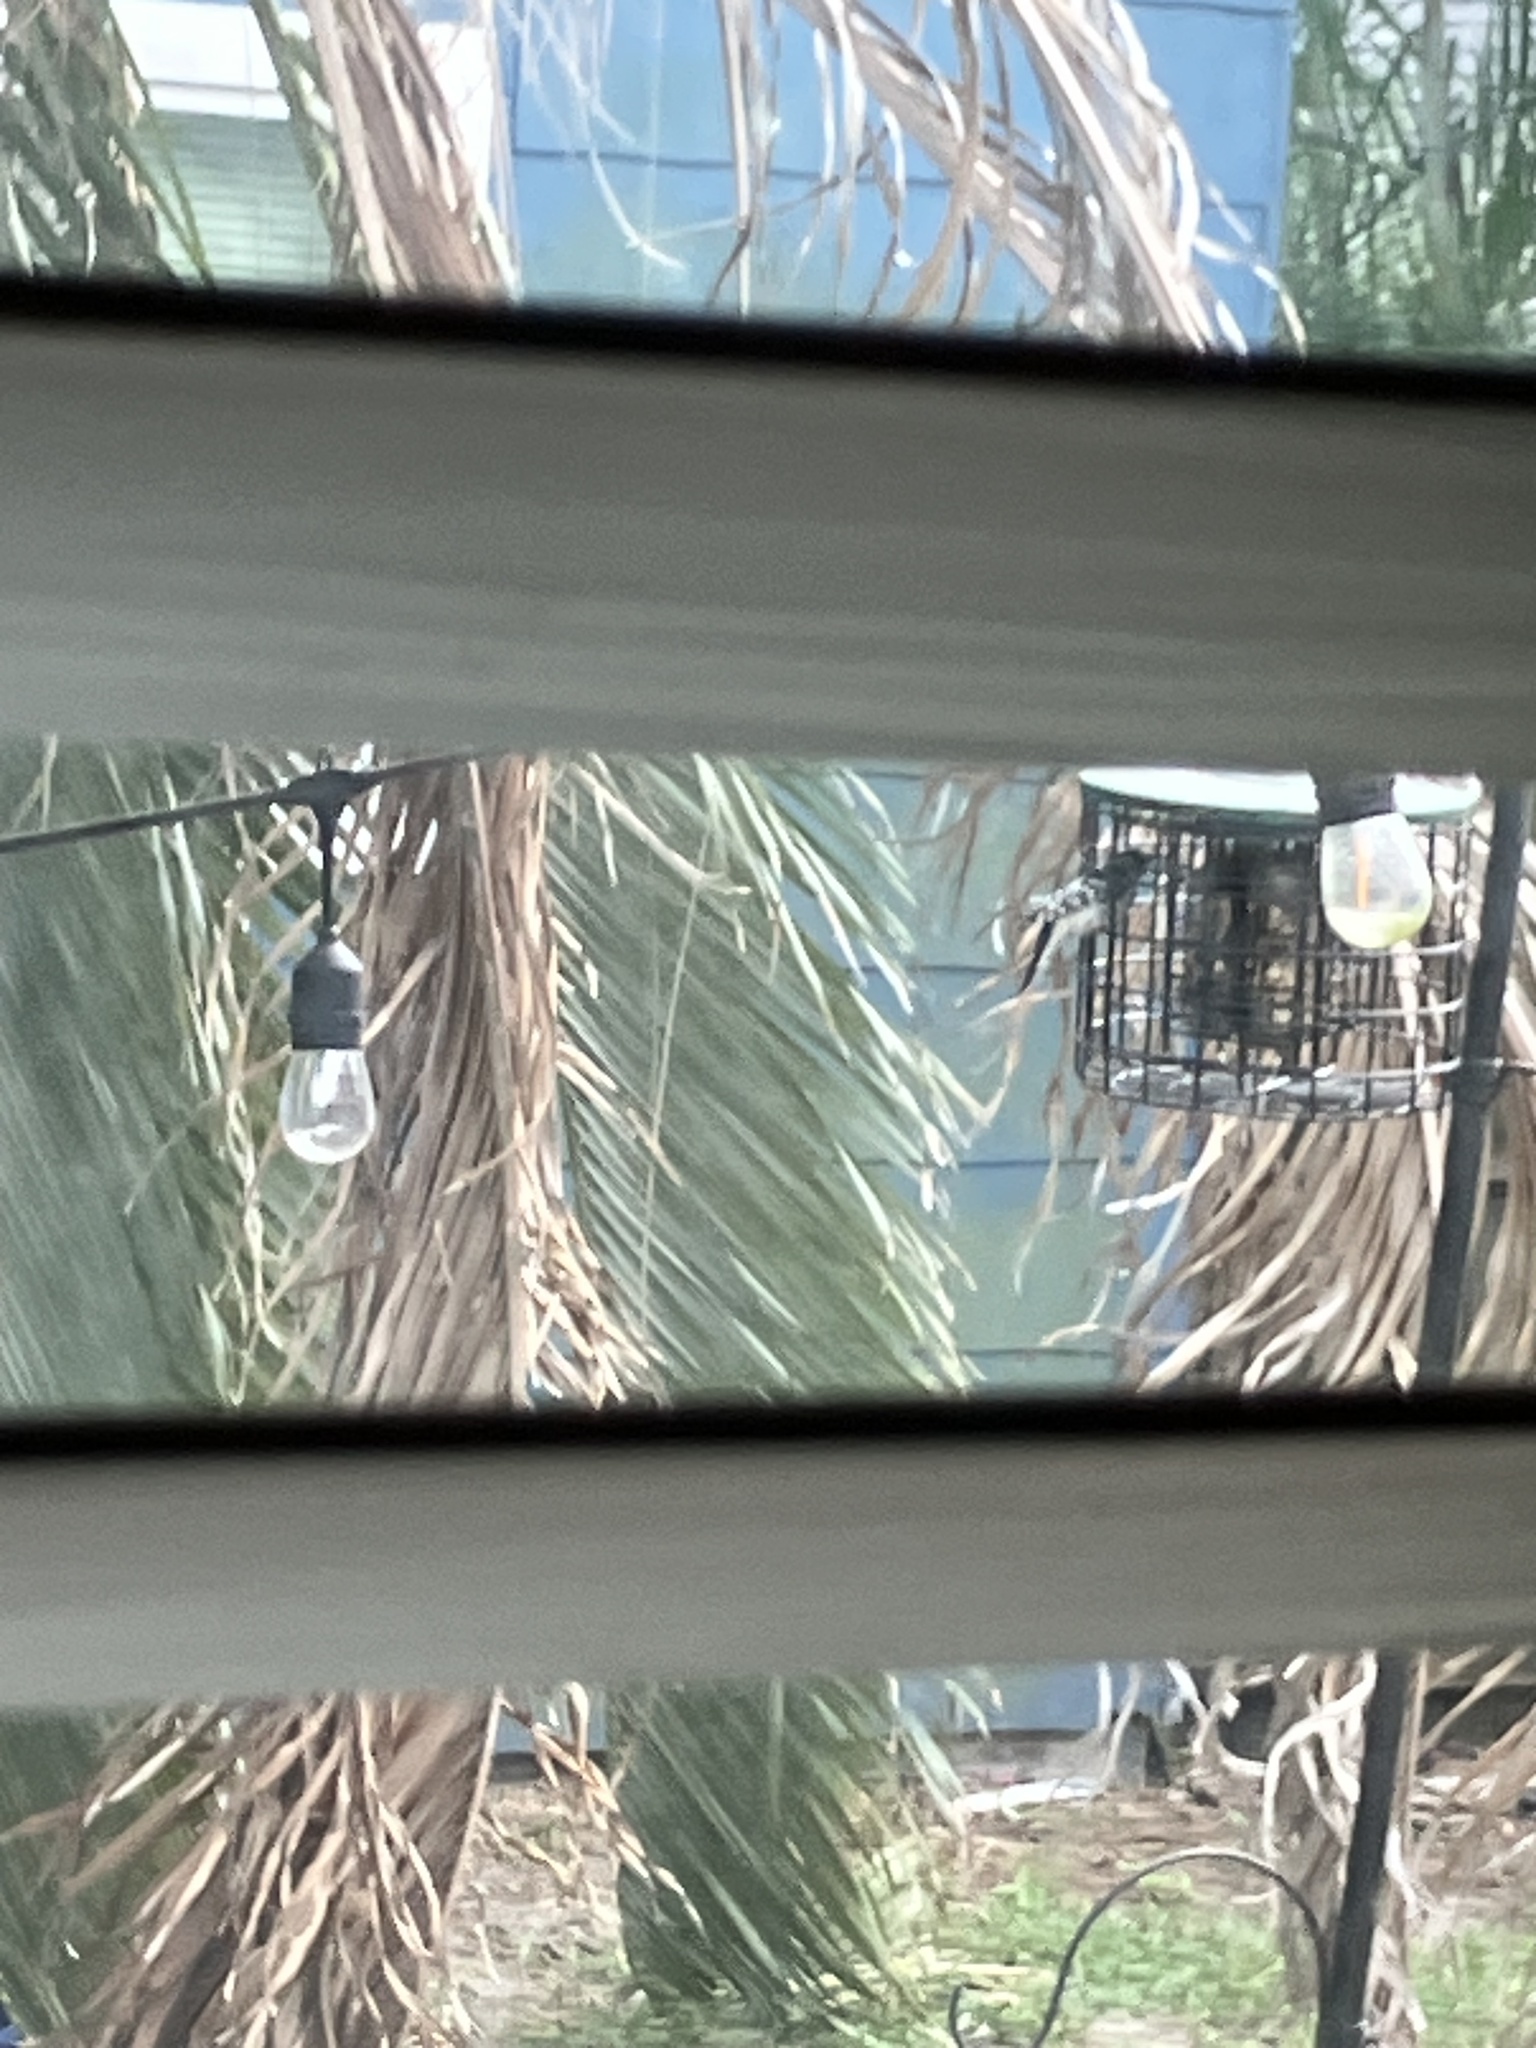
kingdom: Animalia
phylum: Chordata
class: Aves
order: Piciformes
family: Picidae
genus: Dryobates
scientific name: Dryobates pubescens
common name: Downy woodpecker
